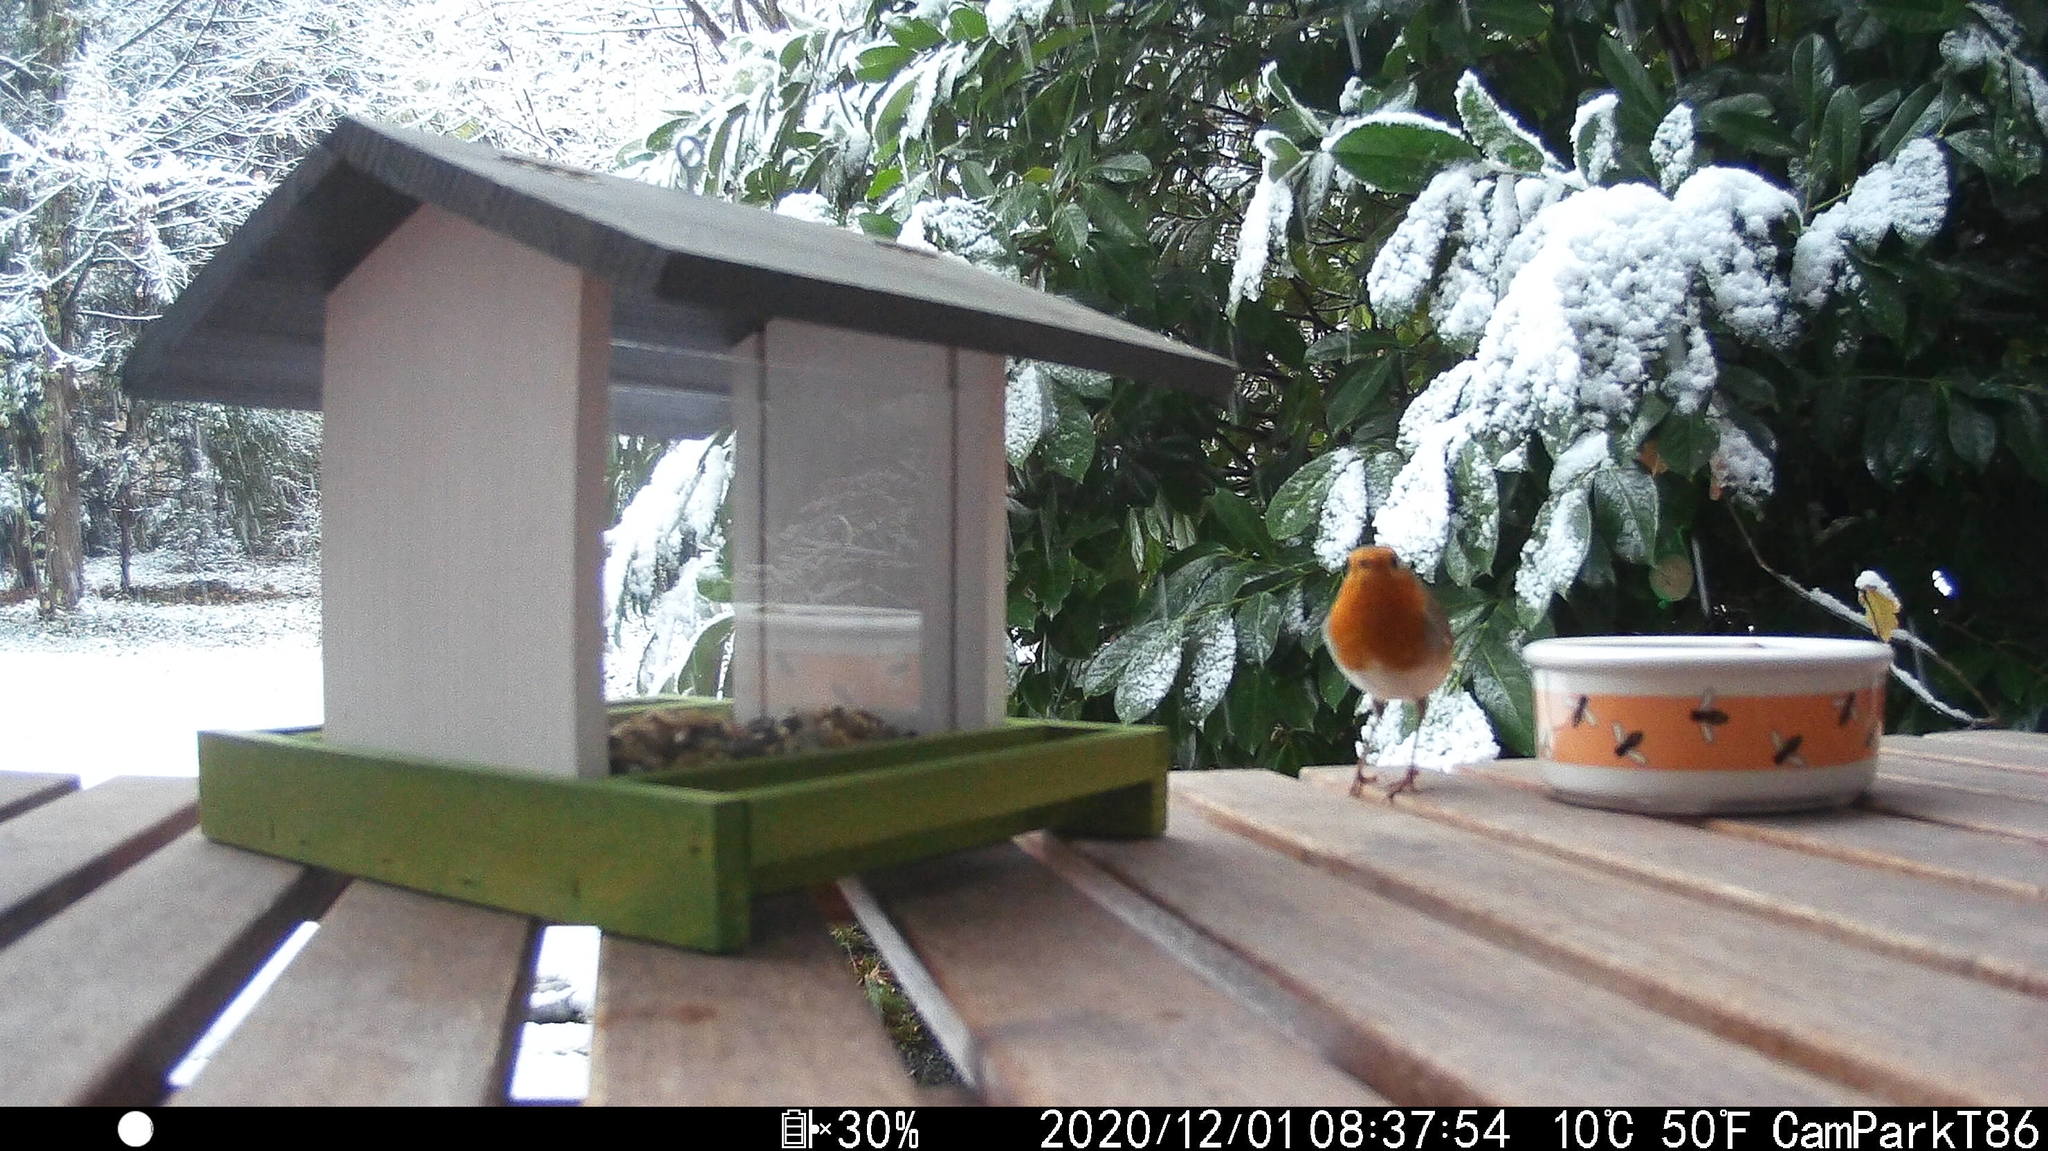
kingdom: Animalia
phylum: Chordata
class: Aves
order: Passeriformes
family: Muscicapidae
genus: Erithacus
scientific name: Erithacus rubecula
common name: European robin
